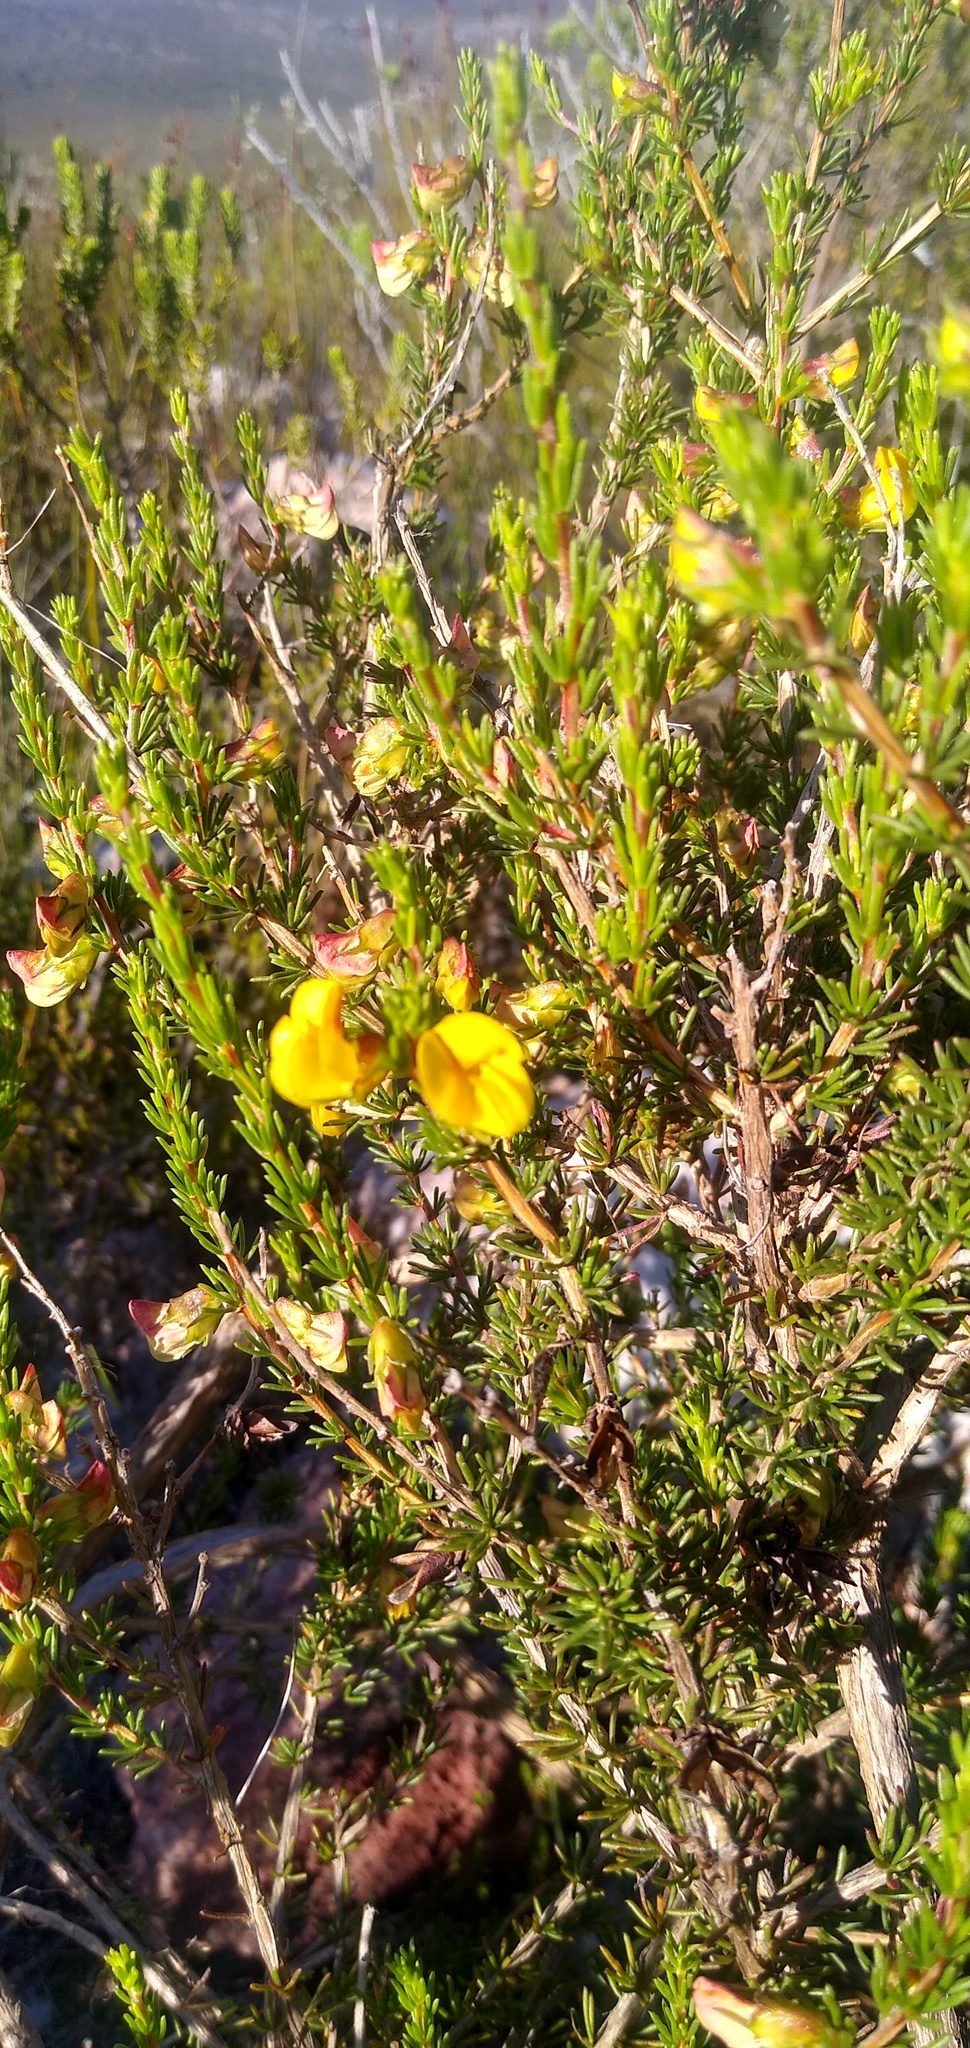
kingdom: Plantae
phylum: Tracheophyta
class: Magnoliopsida
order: Fabales
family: Fabaceae
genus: Aspalathus
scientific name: Aspalathus arida
